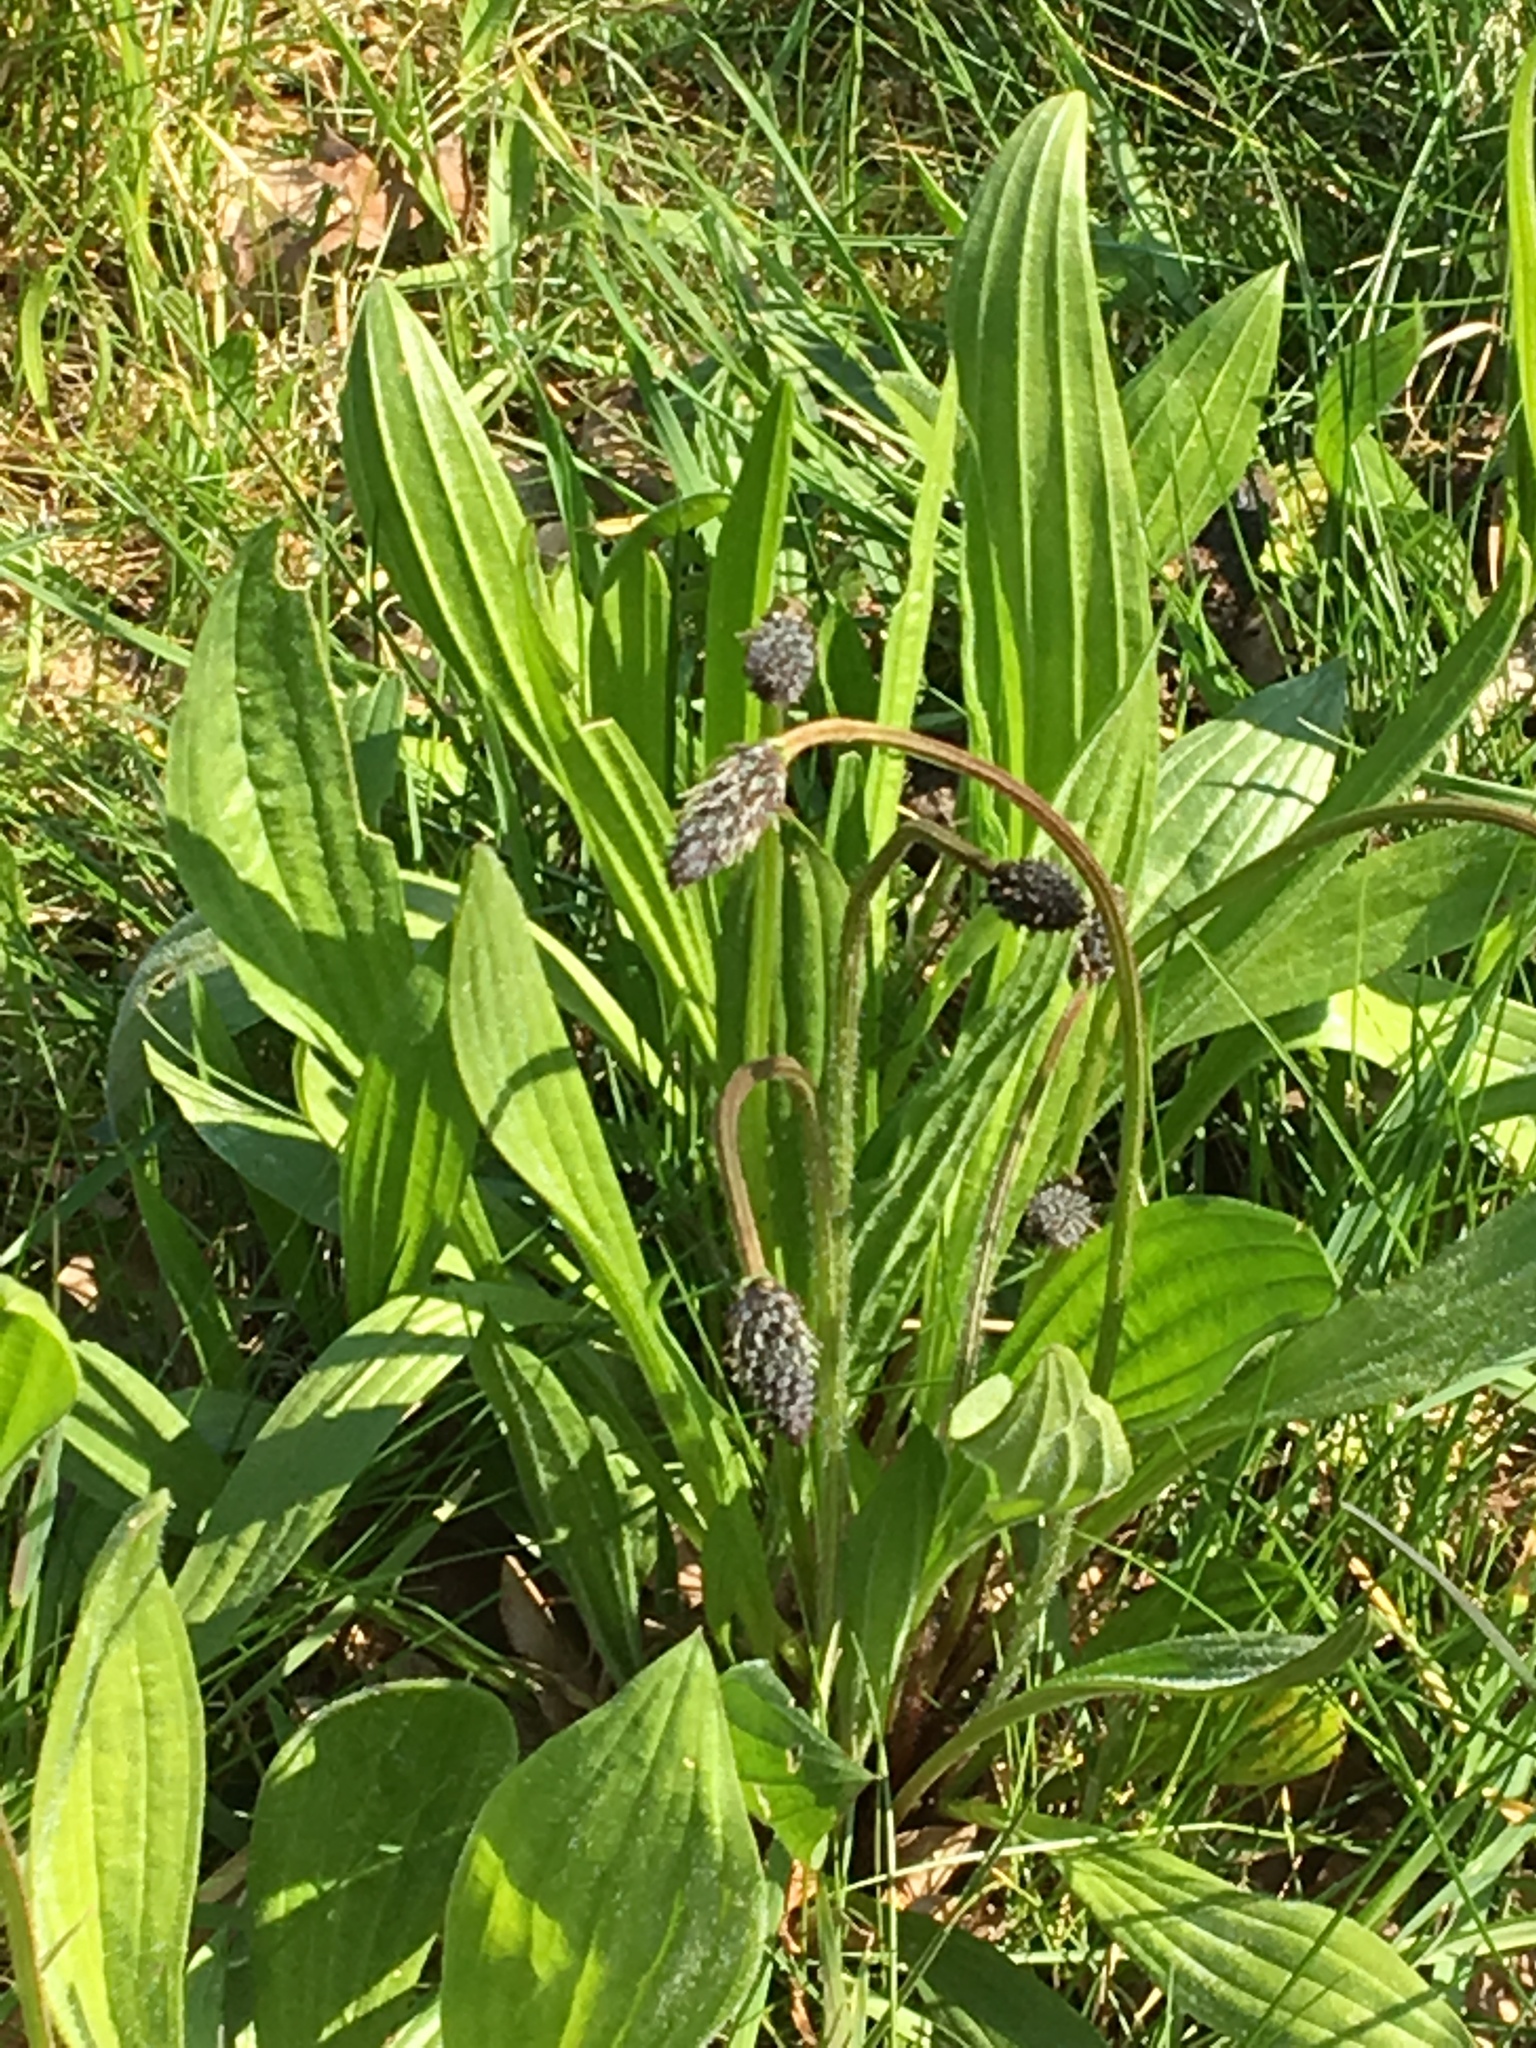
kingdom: Plantae
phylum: Tracheophyta
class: Magnoliopsida
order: Lamiales
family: Plantaginaceae
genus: Plantago
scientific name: Plantago lanceolata
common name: Ribwort plantain
